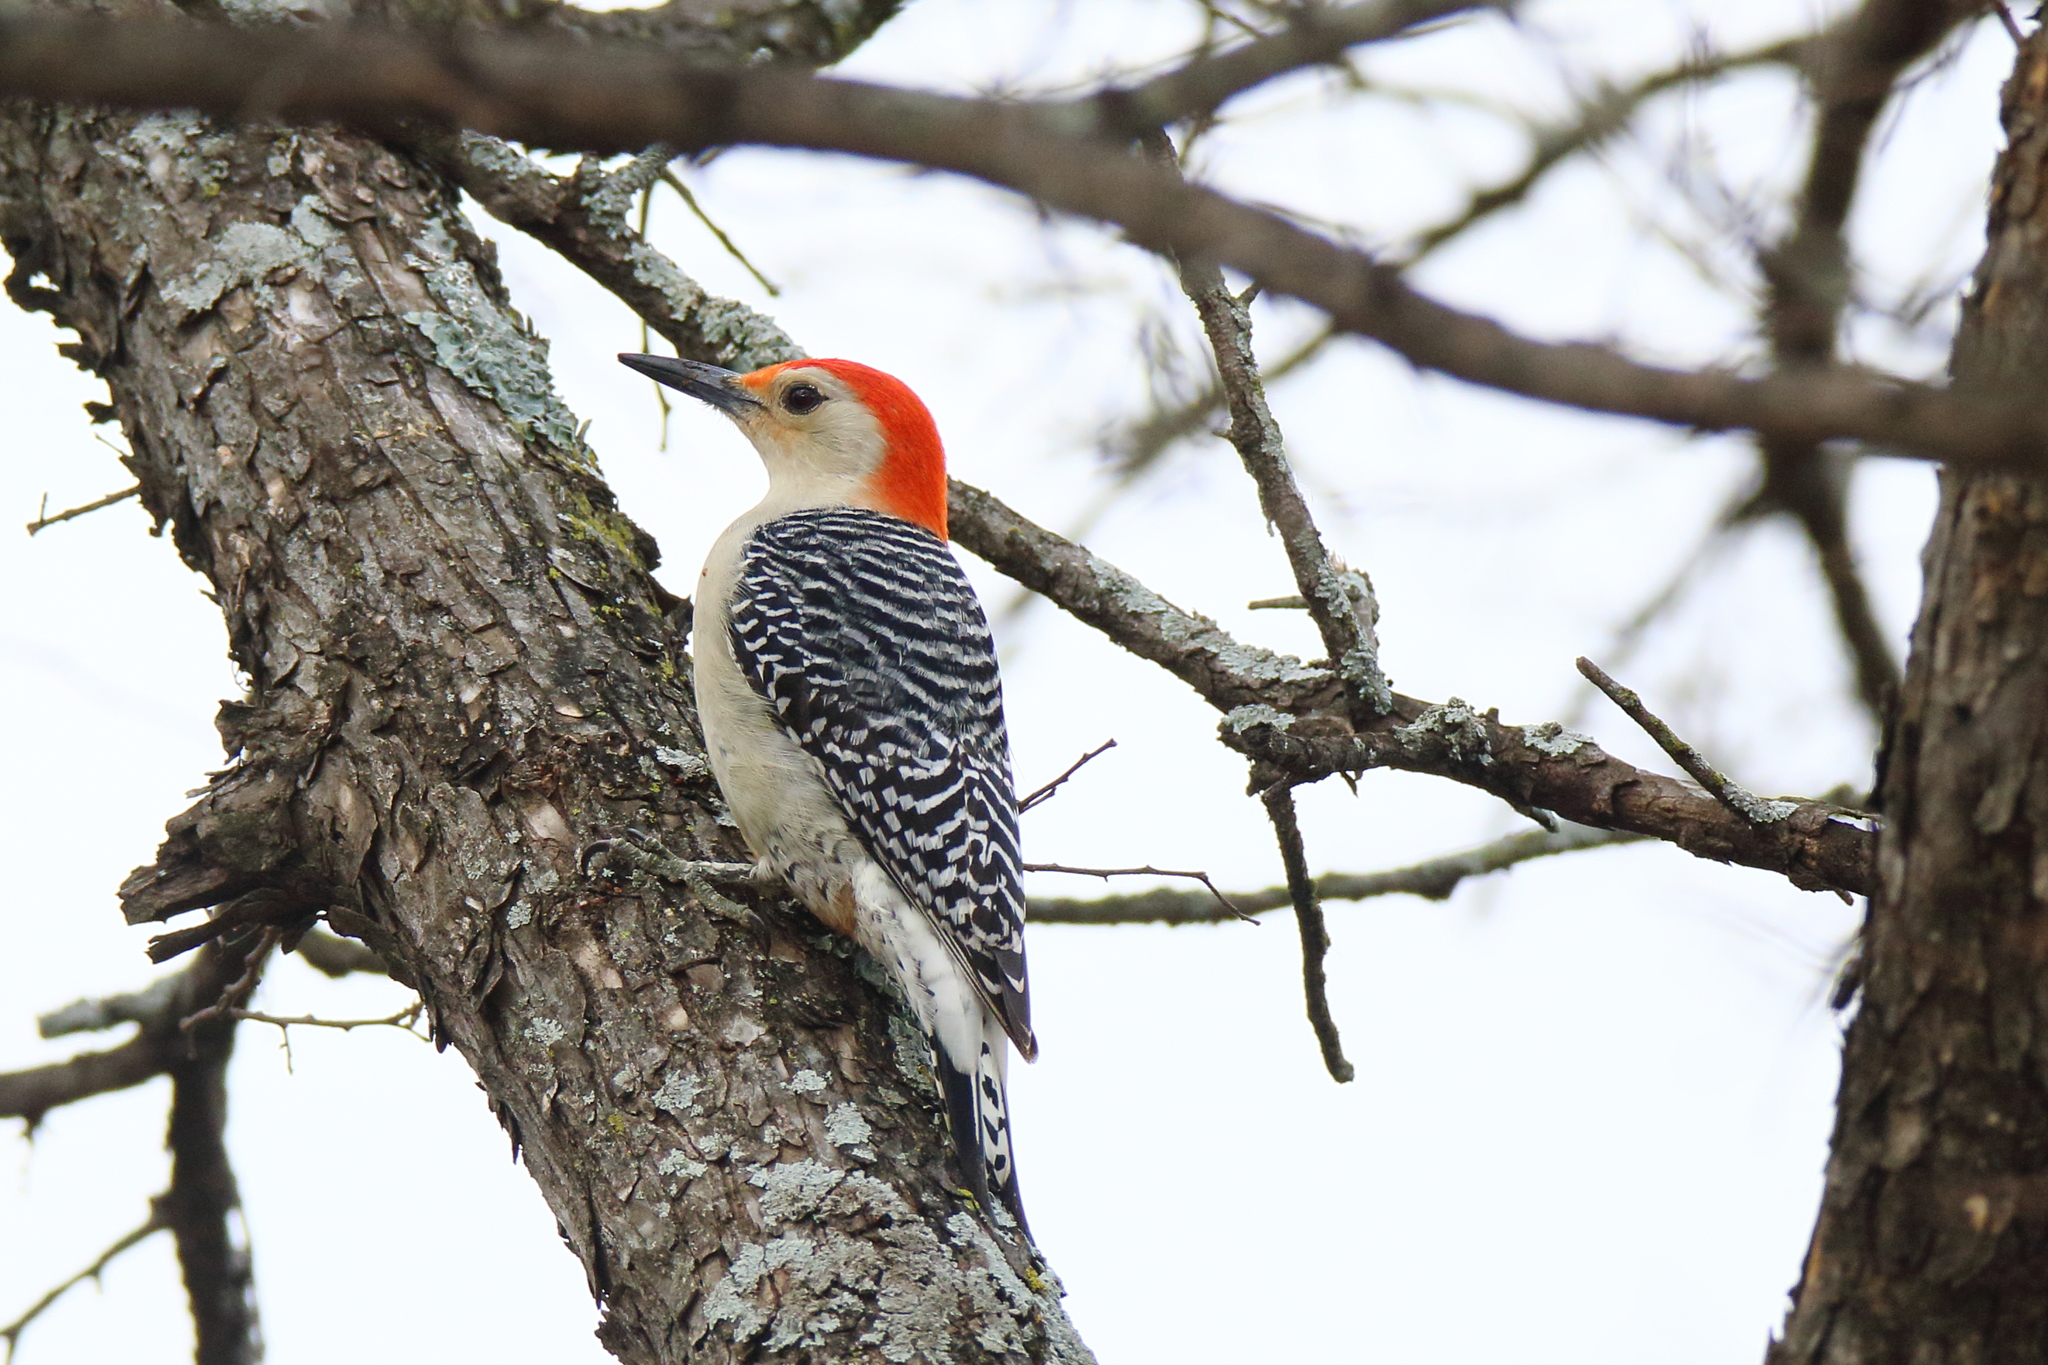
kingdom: Animalia
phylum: Chordata
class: Aves
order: Piciformes
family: Picidae
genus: Melanerpes
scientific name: Melanerpes carolinus
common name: Red-bellied woodpecker
